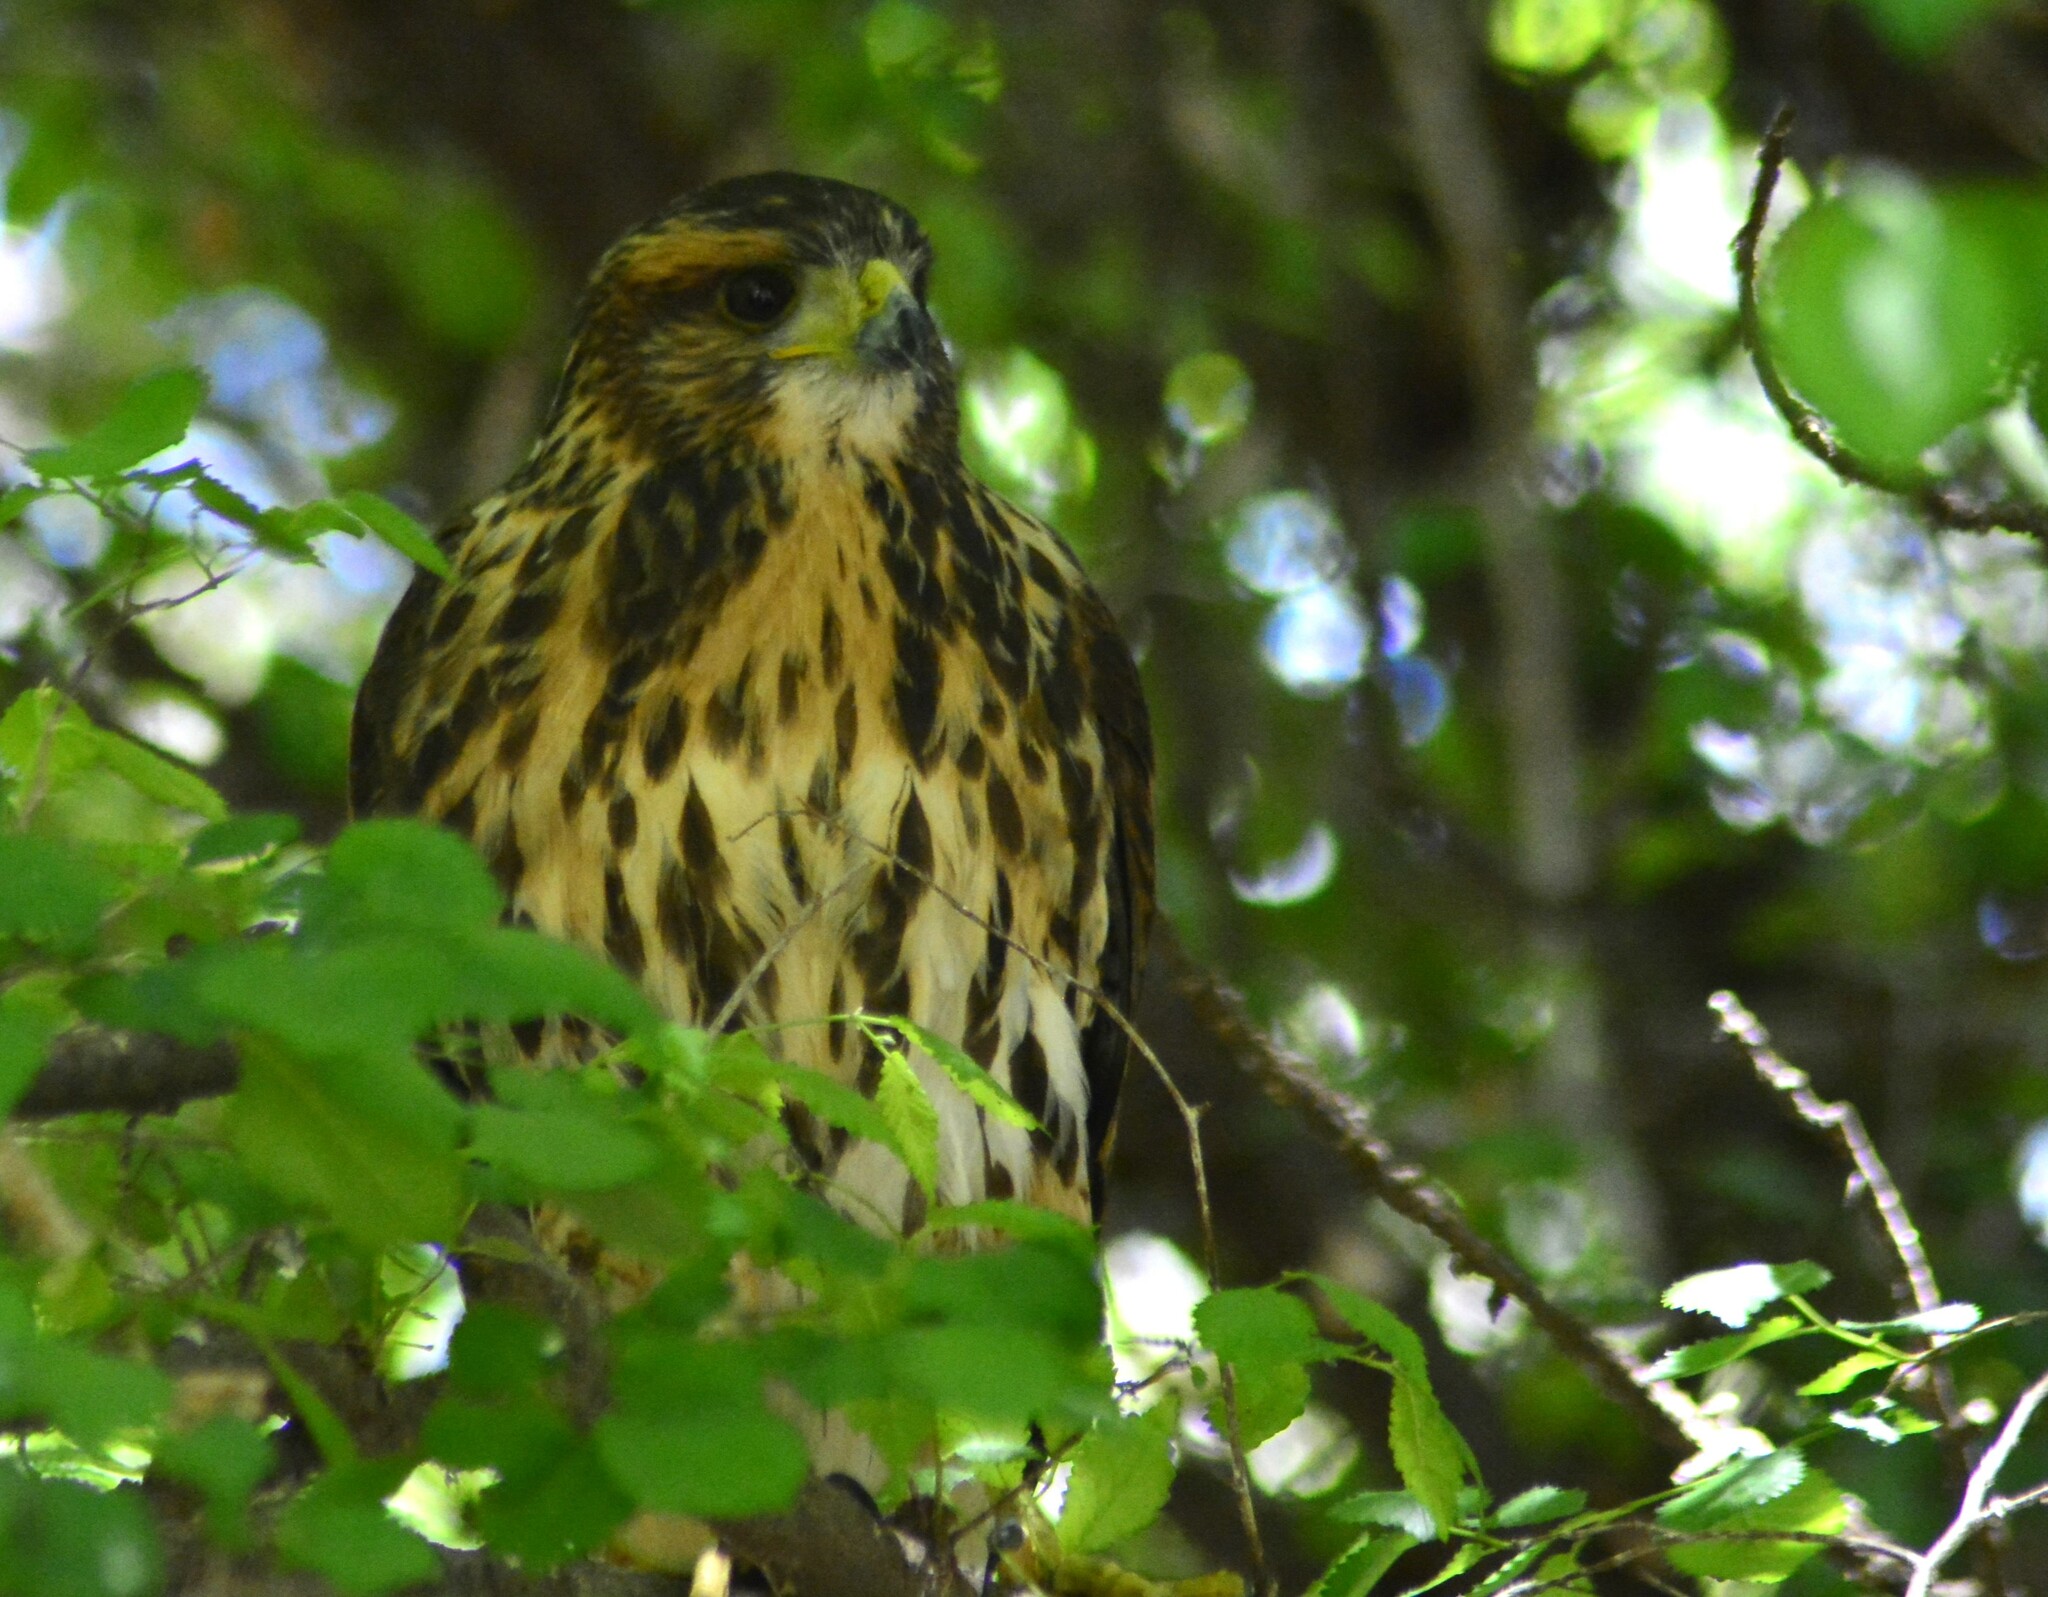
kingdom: Animalia
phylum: Chordata
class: Aves
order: Accipitriformes
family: Accipitridae
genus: Parabuteo
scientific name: Parabuteo unicinctus
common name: Harris's hawk
